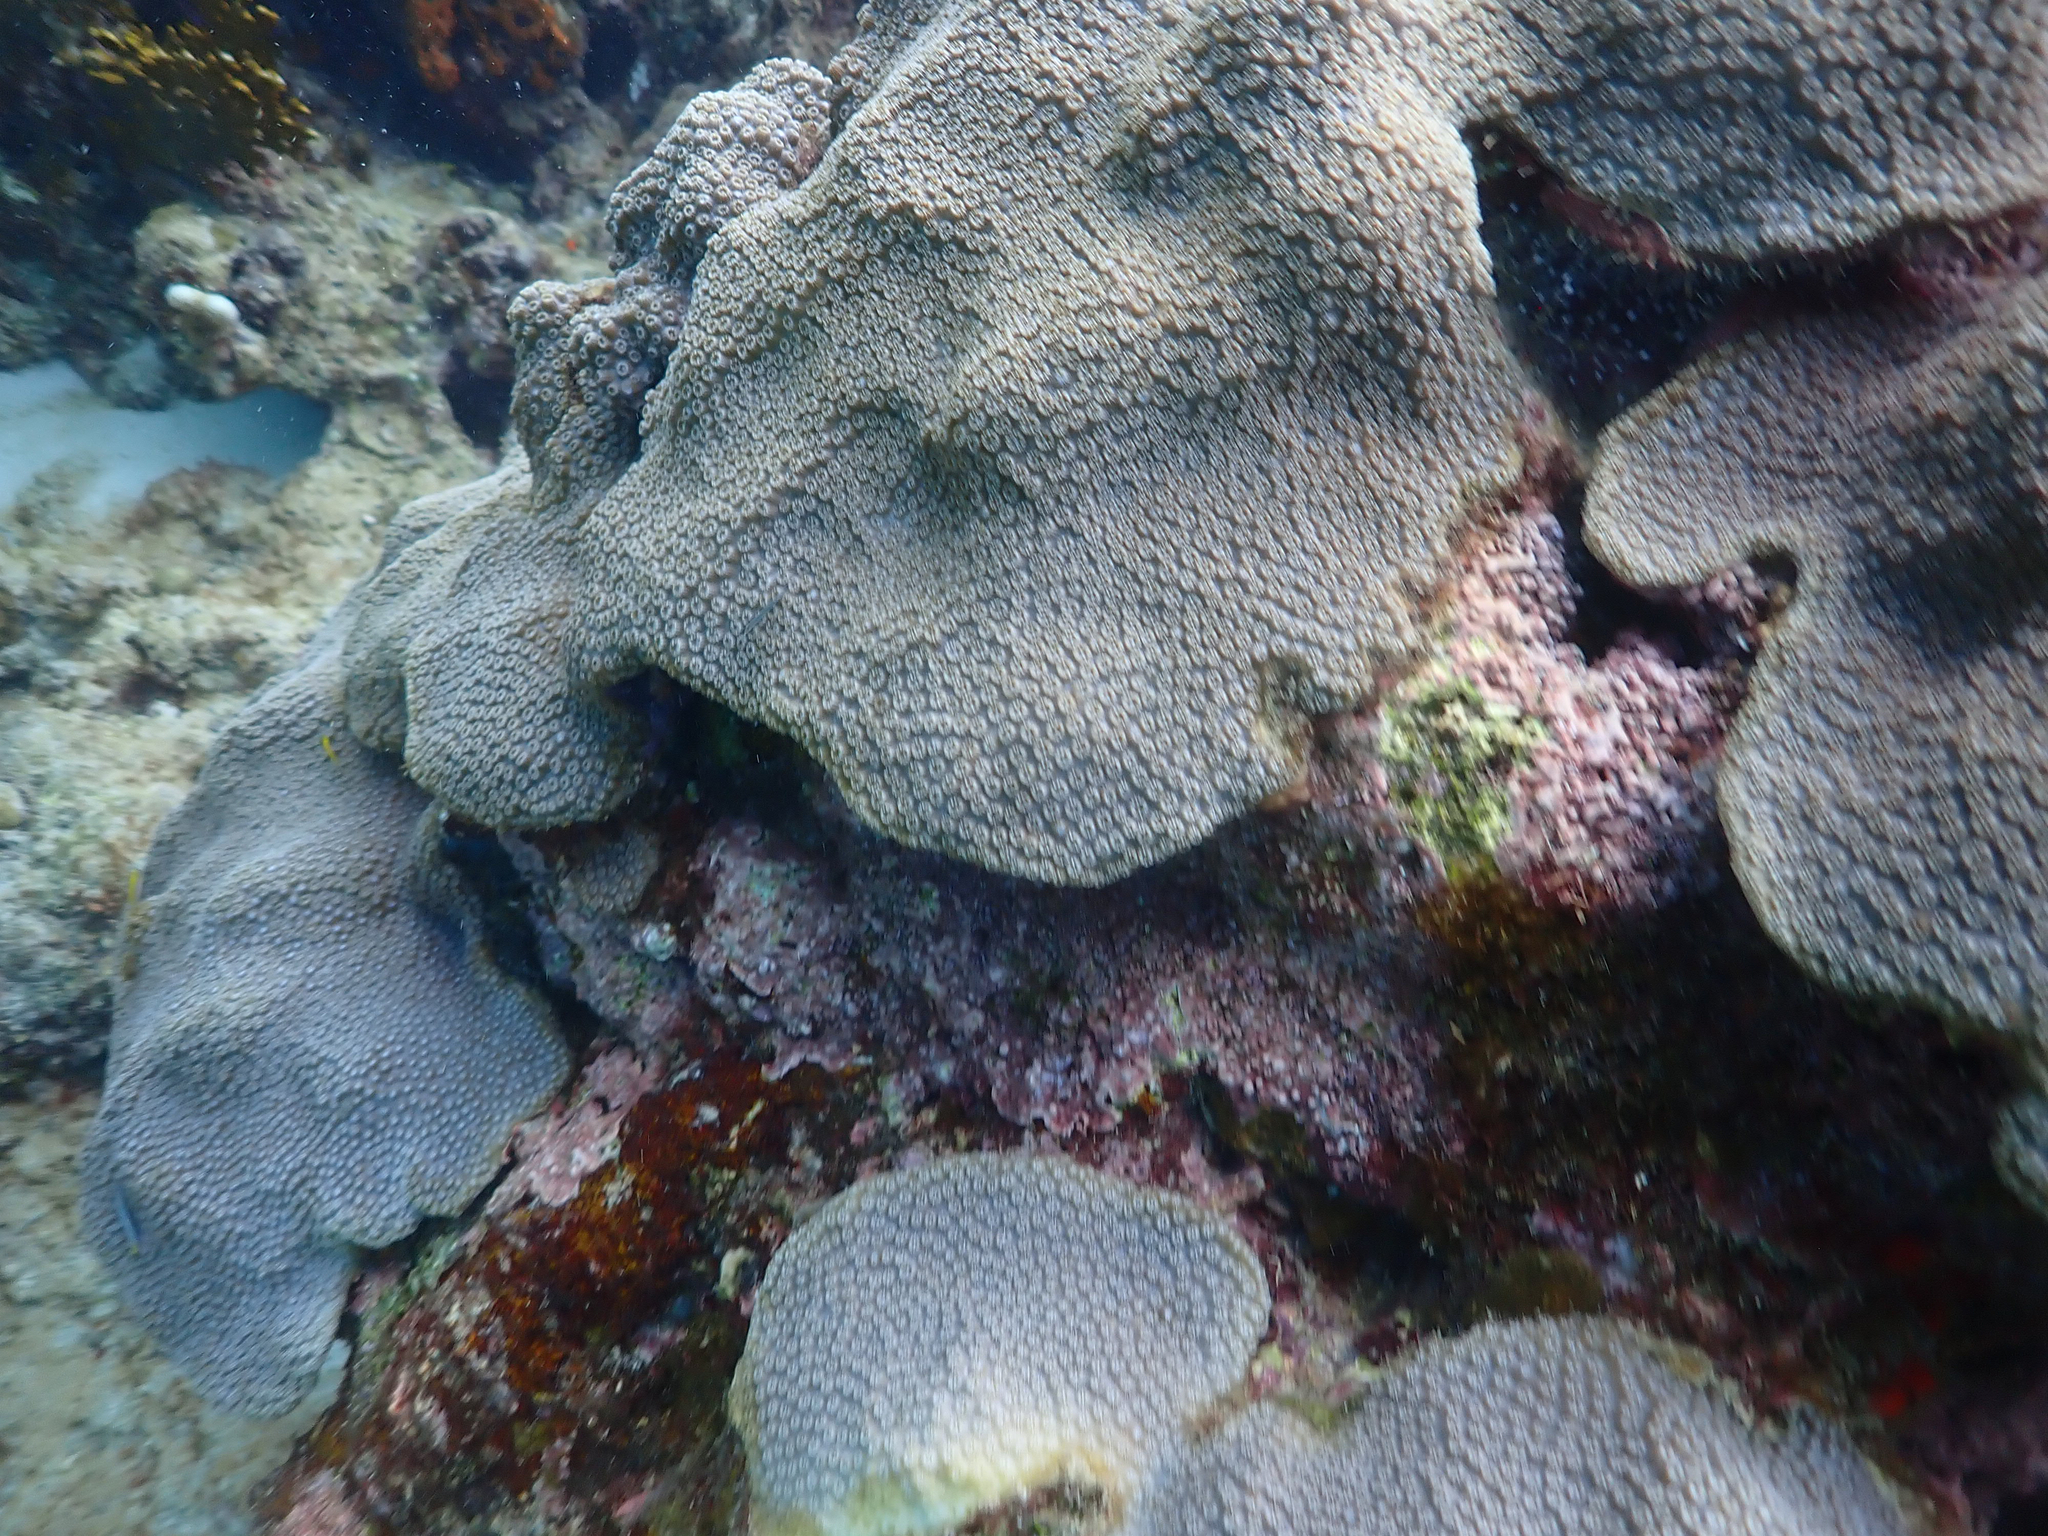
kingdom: Animalia
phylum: Cnidaria
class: Anthozoa
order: Scleractinia
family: Merulinidae
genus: Orbicella
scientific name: Orbicella faveolata
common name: Mountainous star coral
